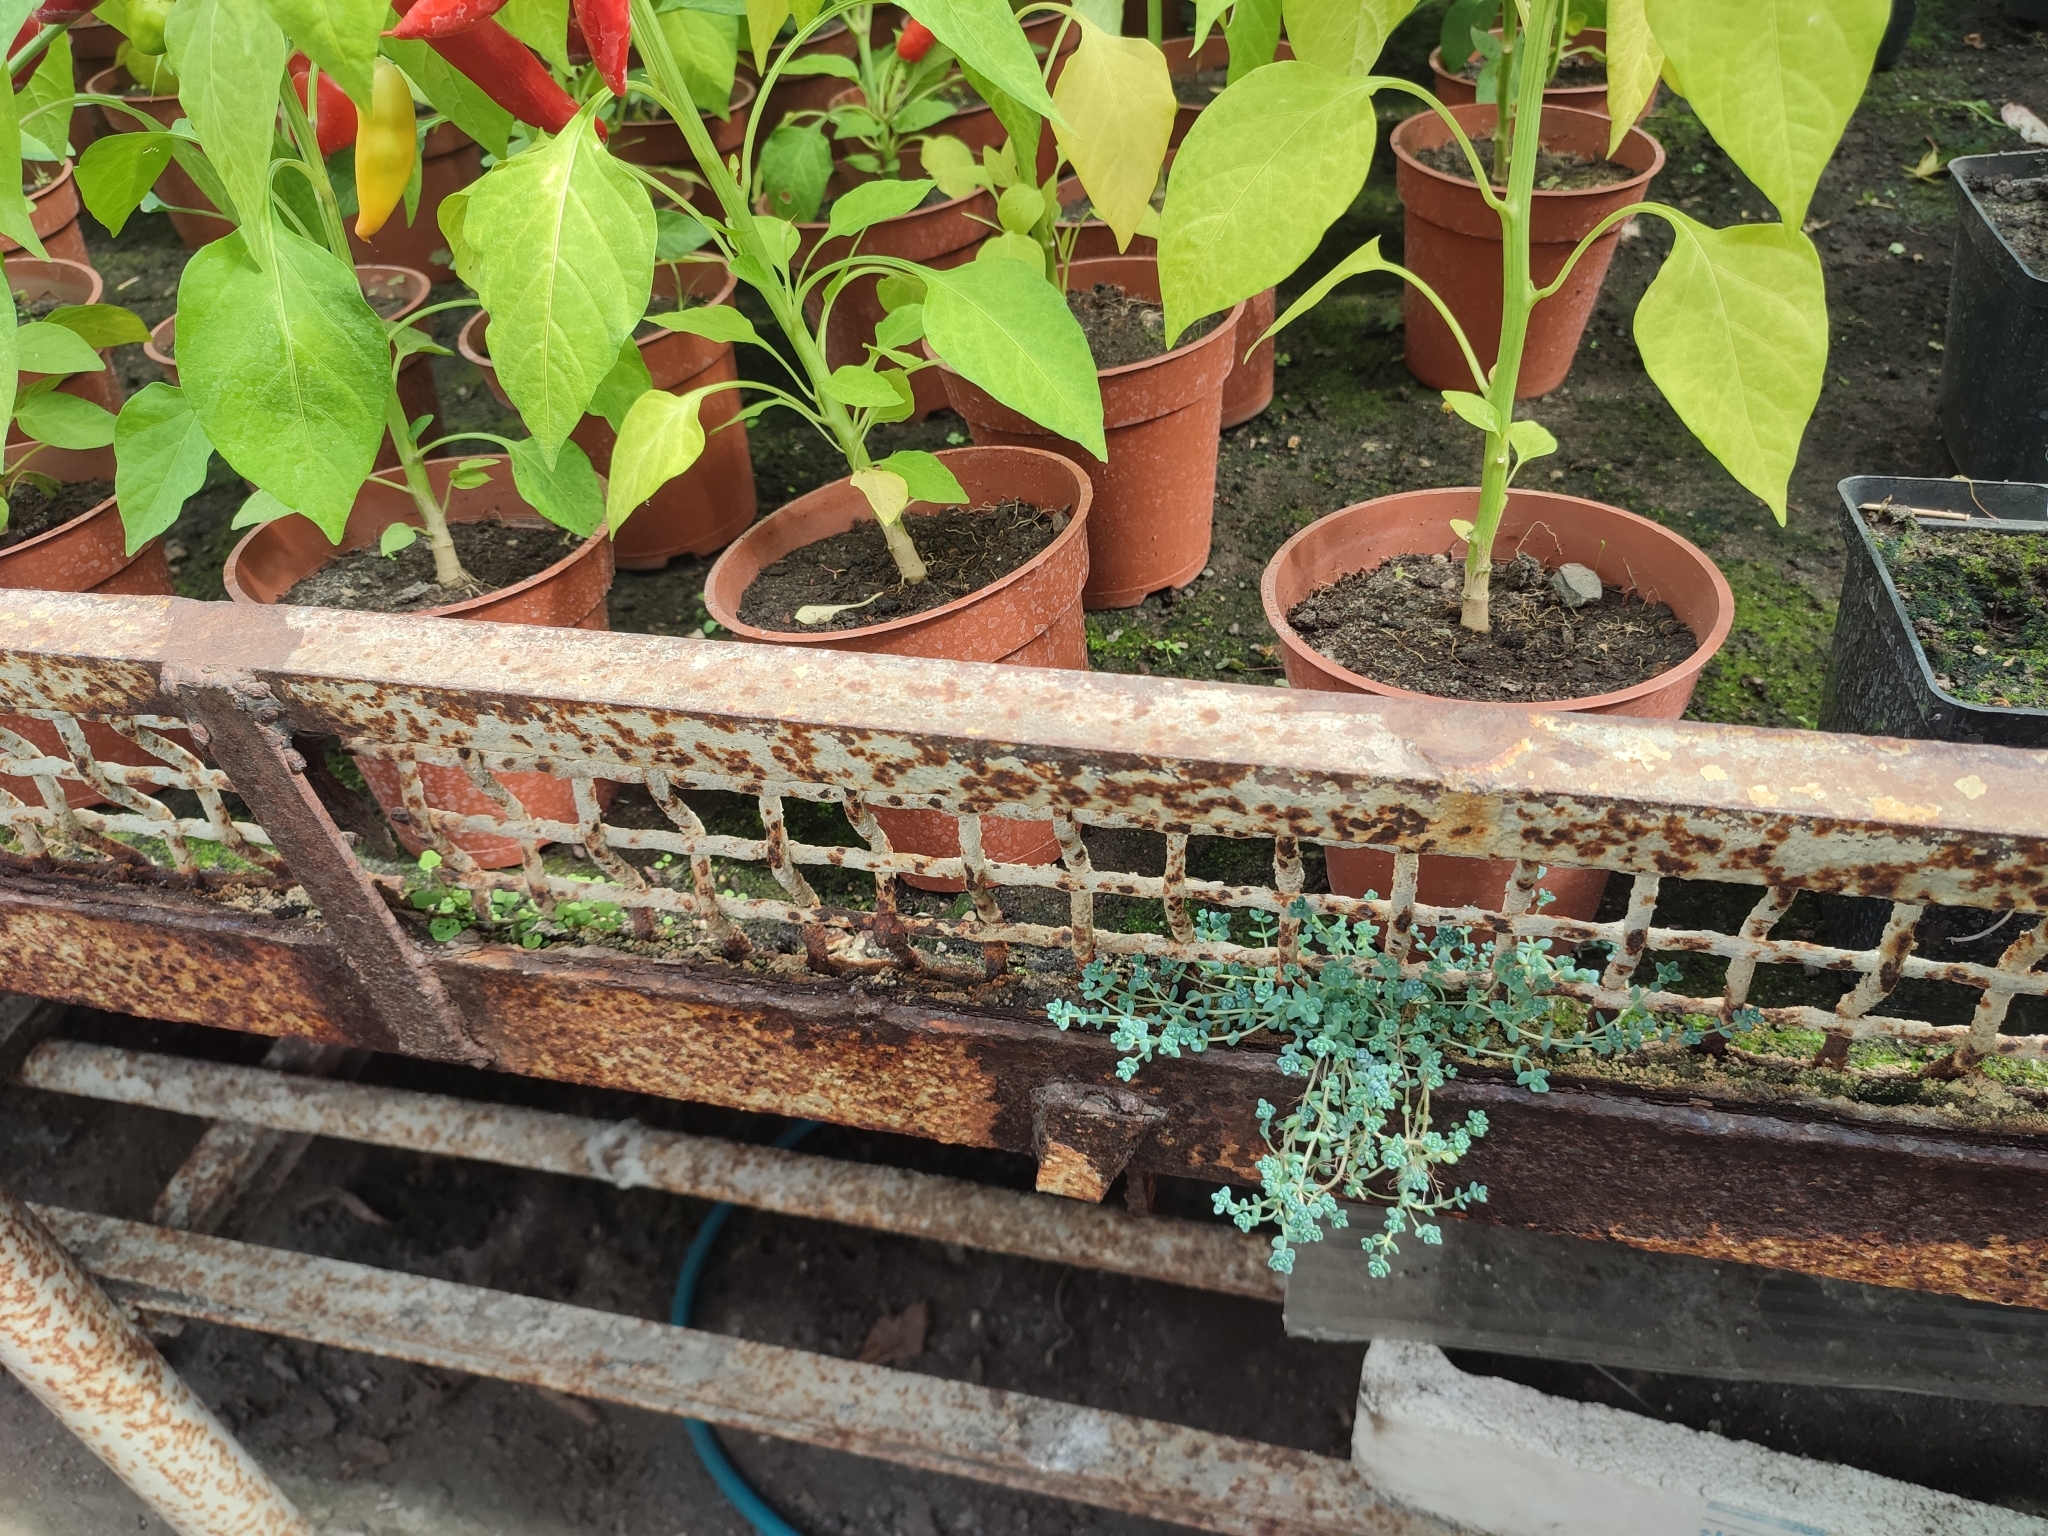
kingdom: Plantae
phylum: Tracheophyta
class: Magnoliopsida
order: Saxifragales
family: Crassulaceae
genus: Sedum
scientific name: Sedum dasyphyllum
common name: Thick-leaf stonecrop
